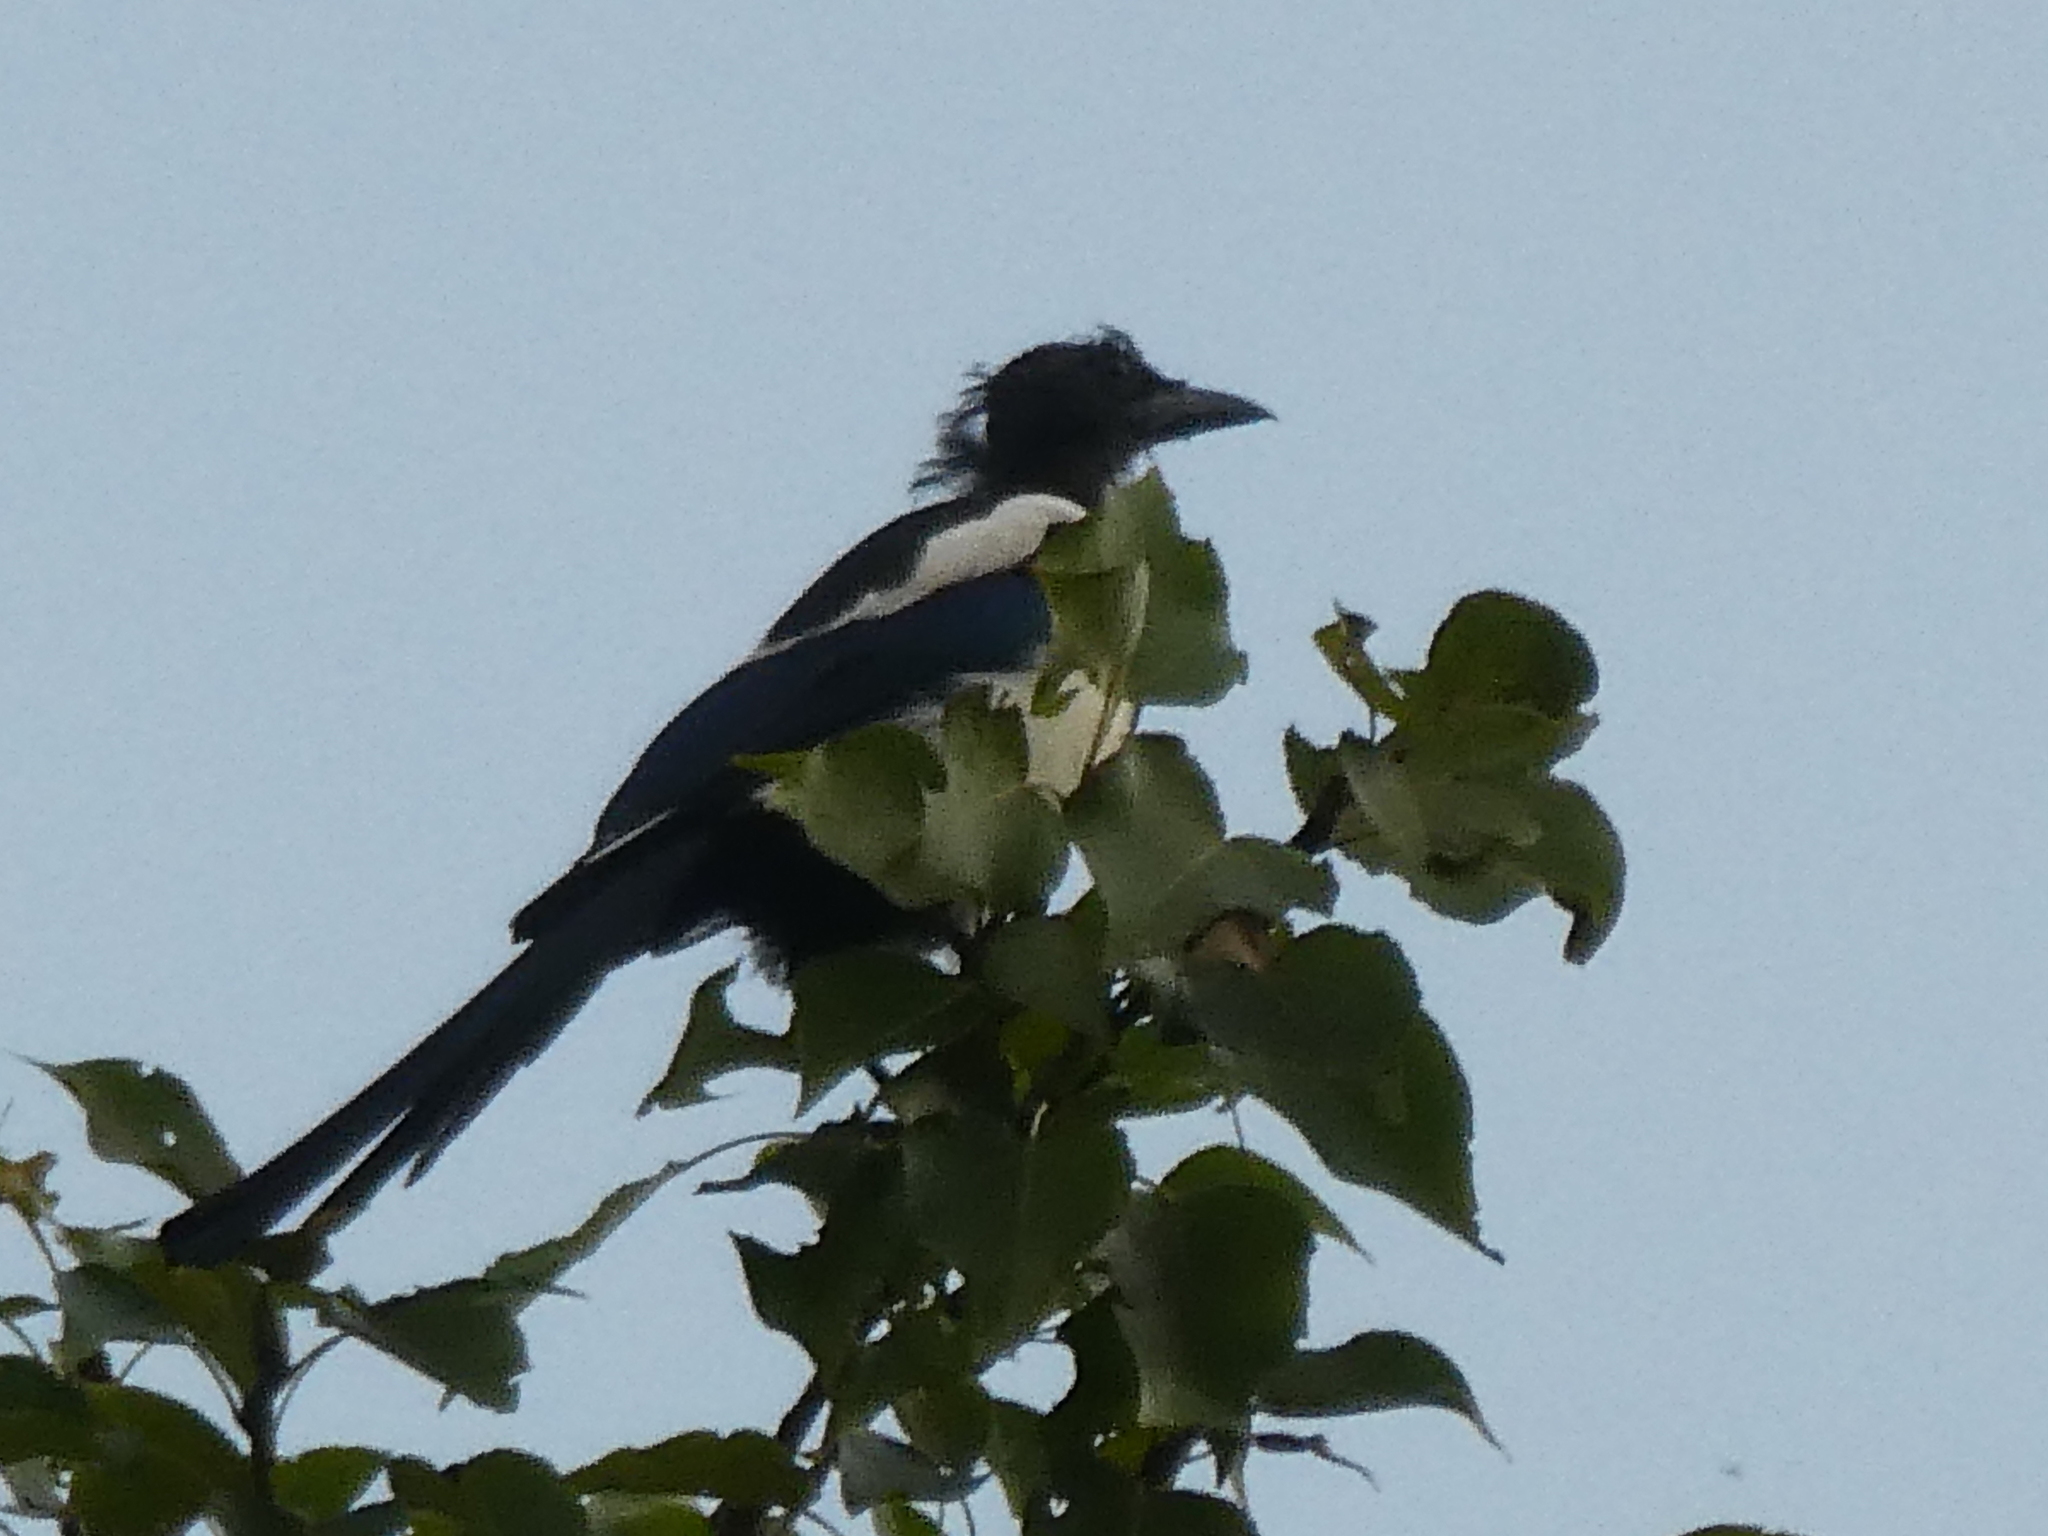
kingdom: Animalia
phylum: Chordata
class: Aves
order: Passeriformes
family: Corvidae
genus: Pica
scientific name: Pica serica
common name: Oriental magpie
